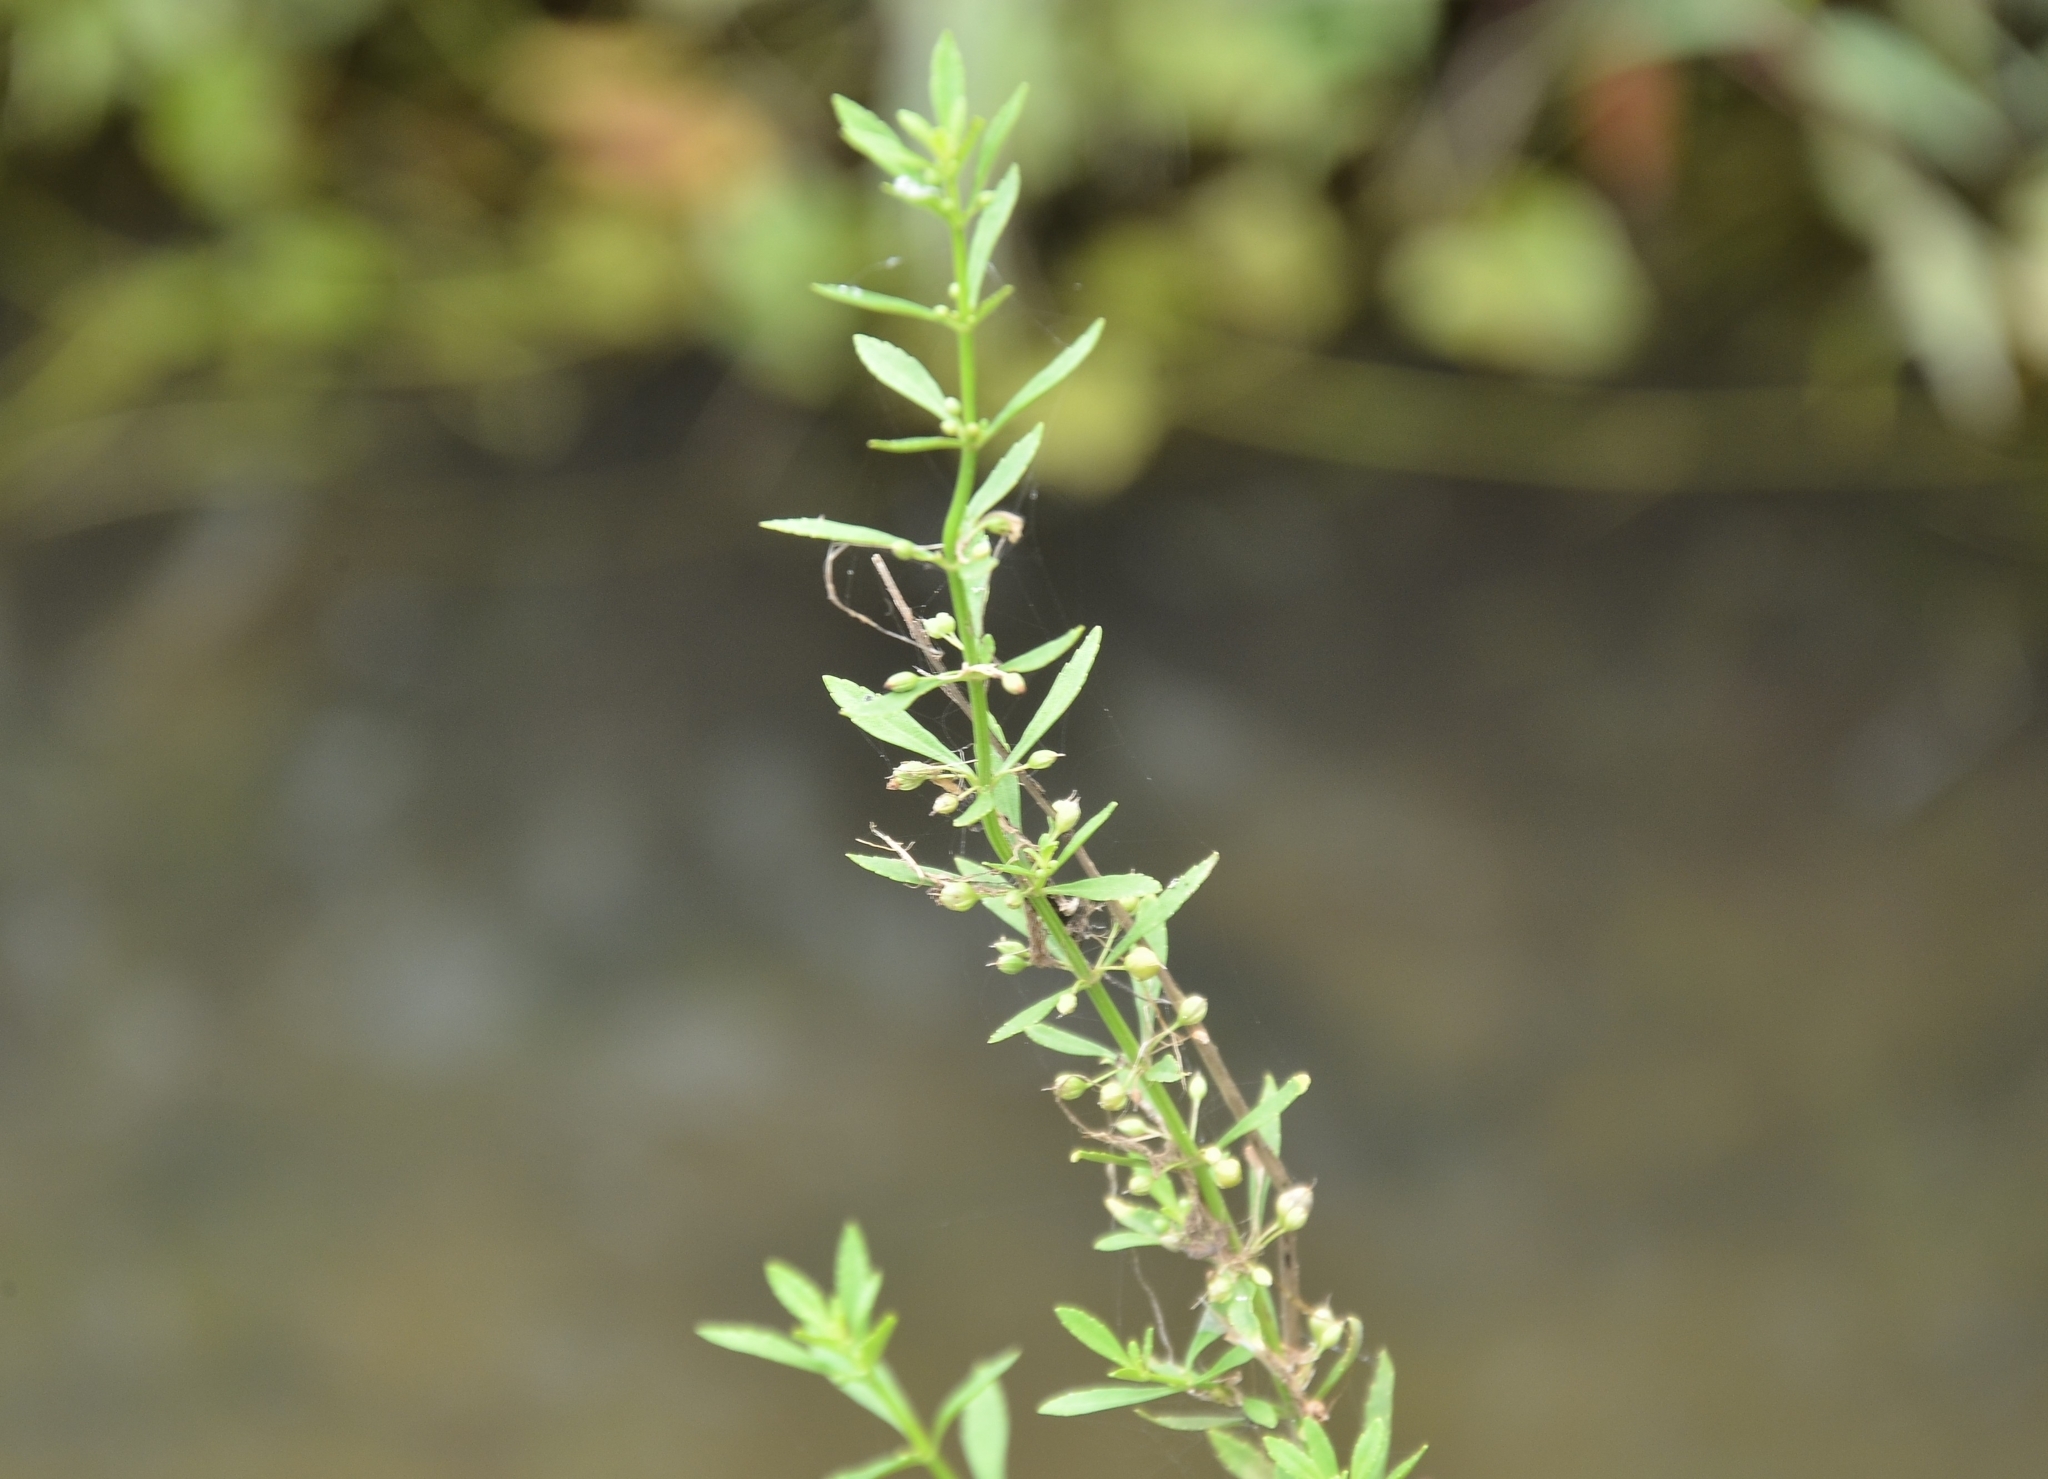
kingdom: Plantae
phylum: Tracheophyta
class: Magnoliopsida
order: Lamiales
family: Plantaginaceae
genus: Scoparia
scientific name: Scoparia dulcis
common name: Scoparia-weed
